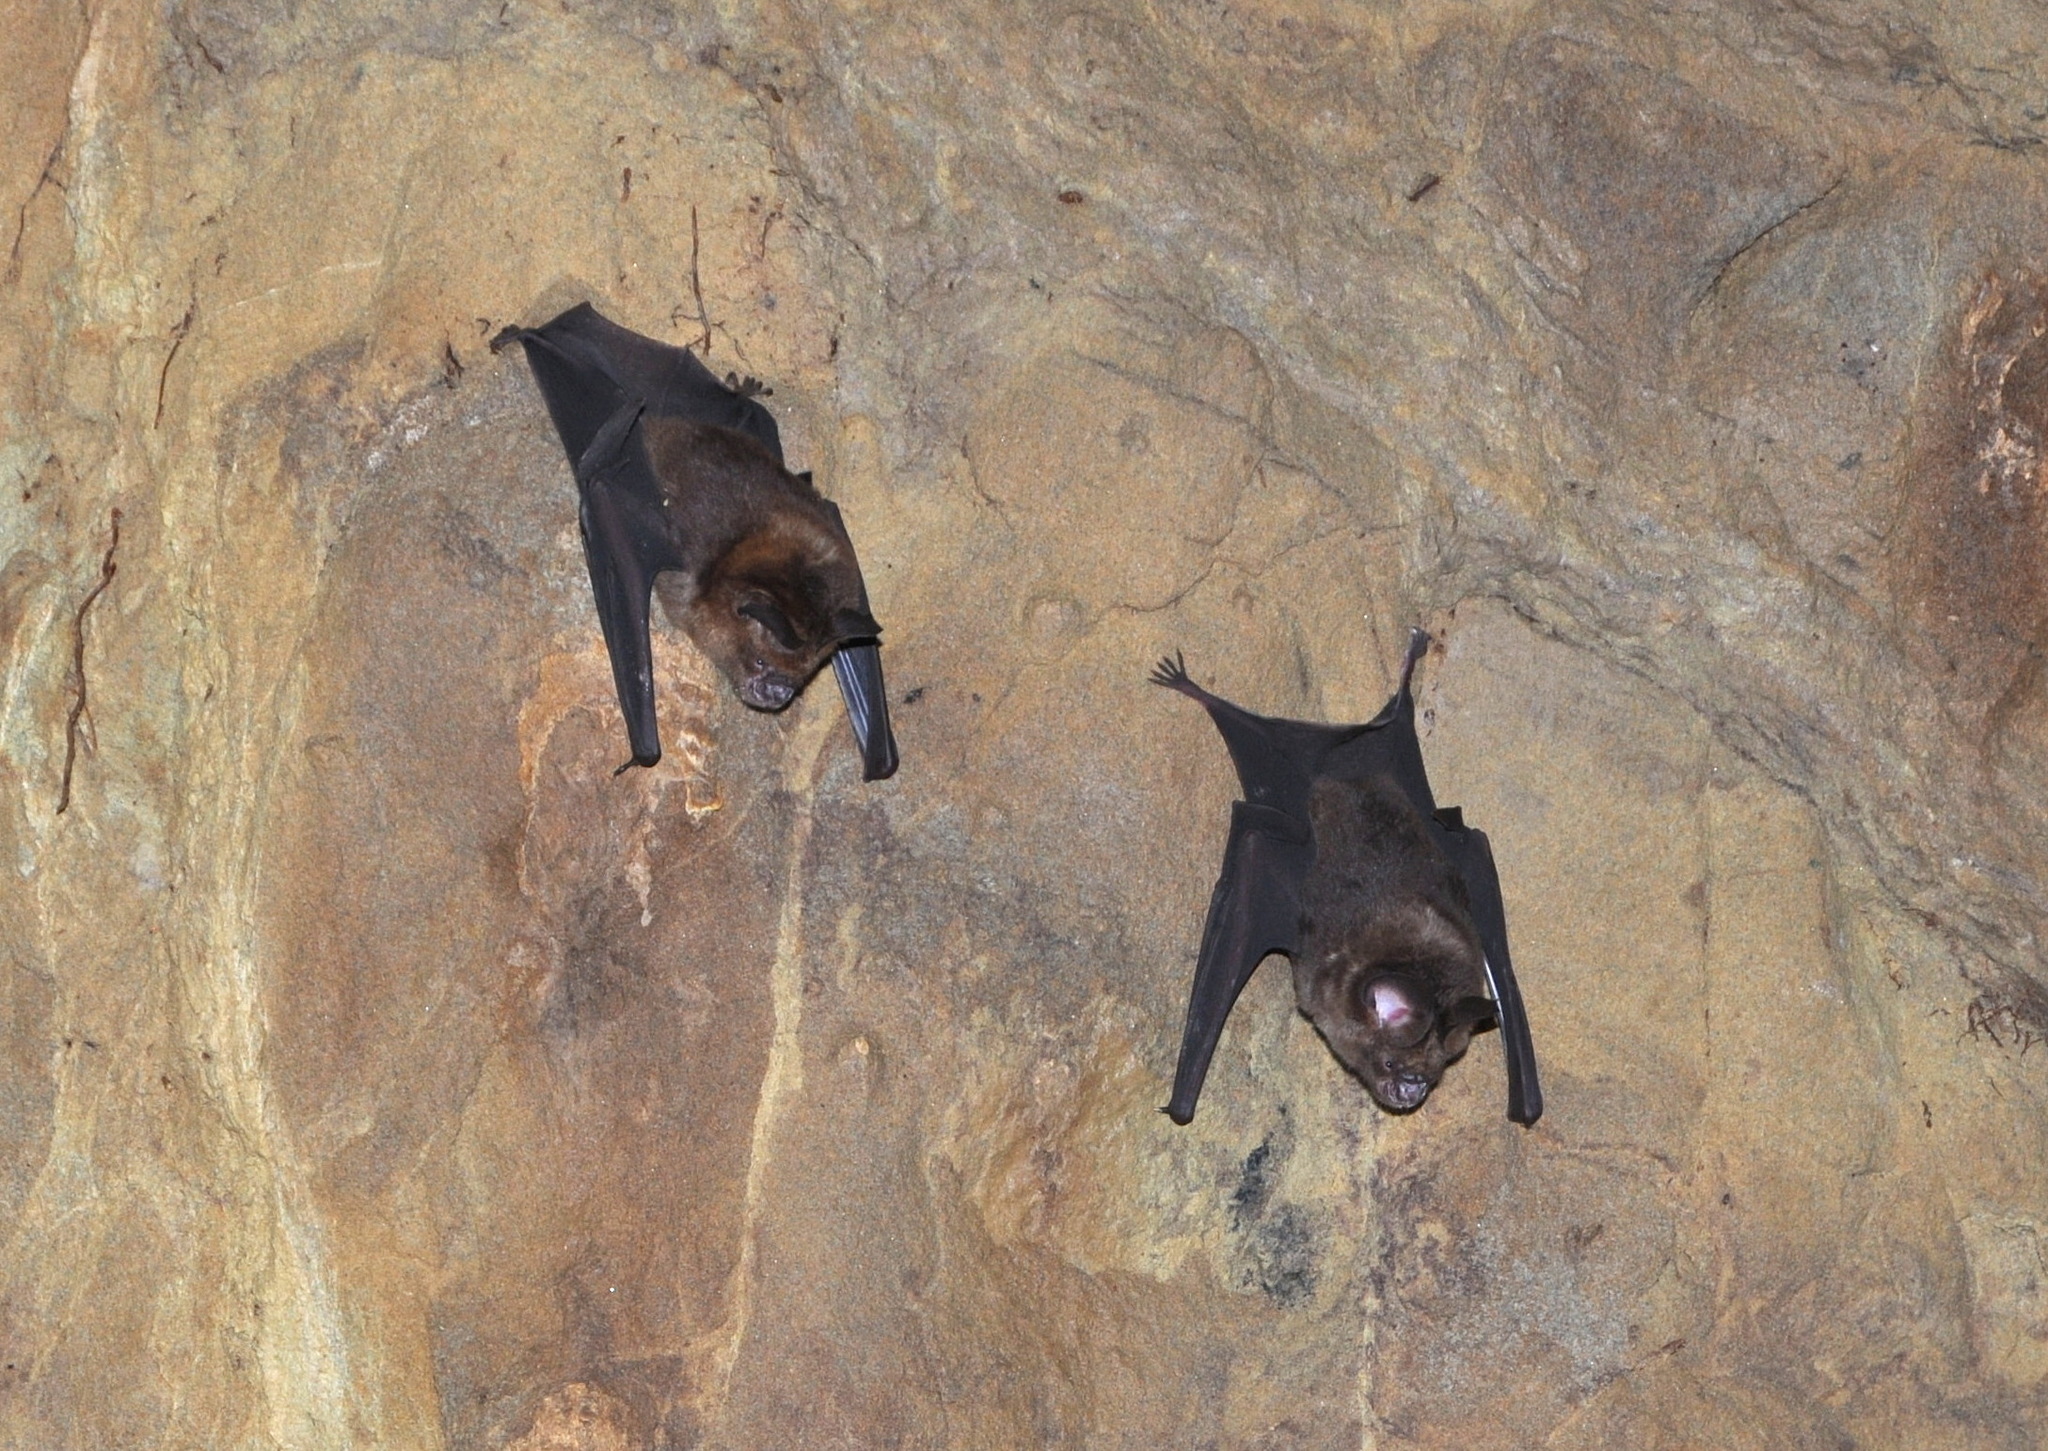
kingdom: Animalia
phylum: Chordata
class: Mammalia
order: Chiroptera
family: Hipposideridae
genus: Hipposideros
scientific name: Hipposideros larvatus
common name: Intermediate leaf-nosed bat
